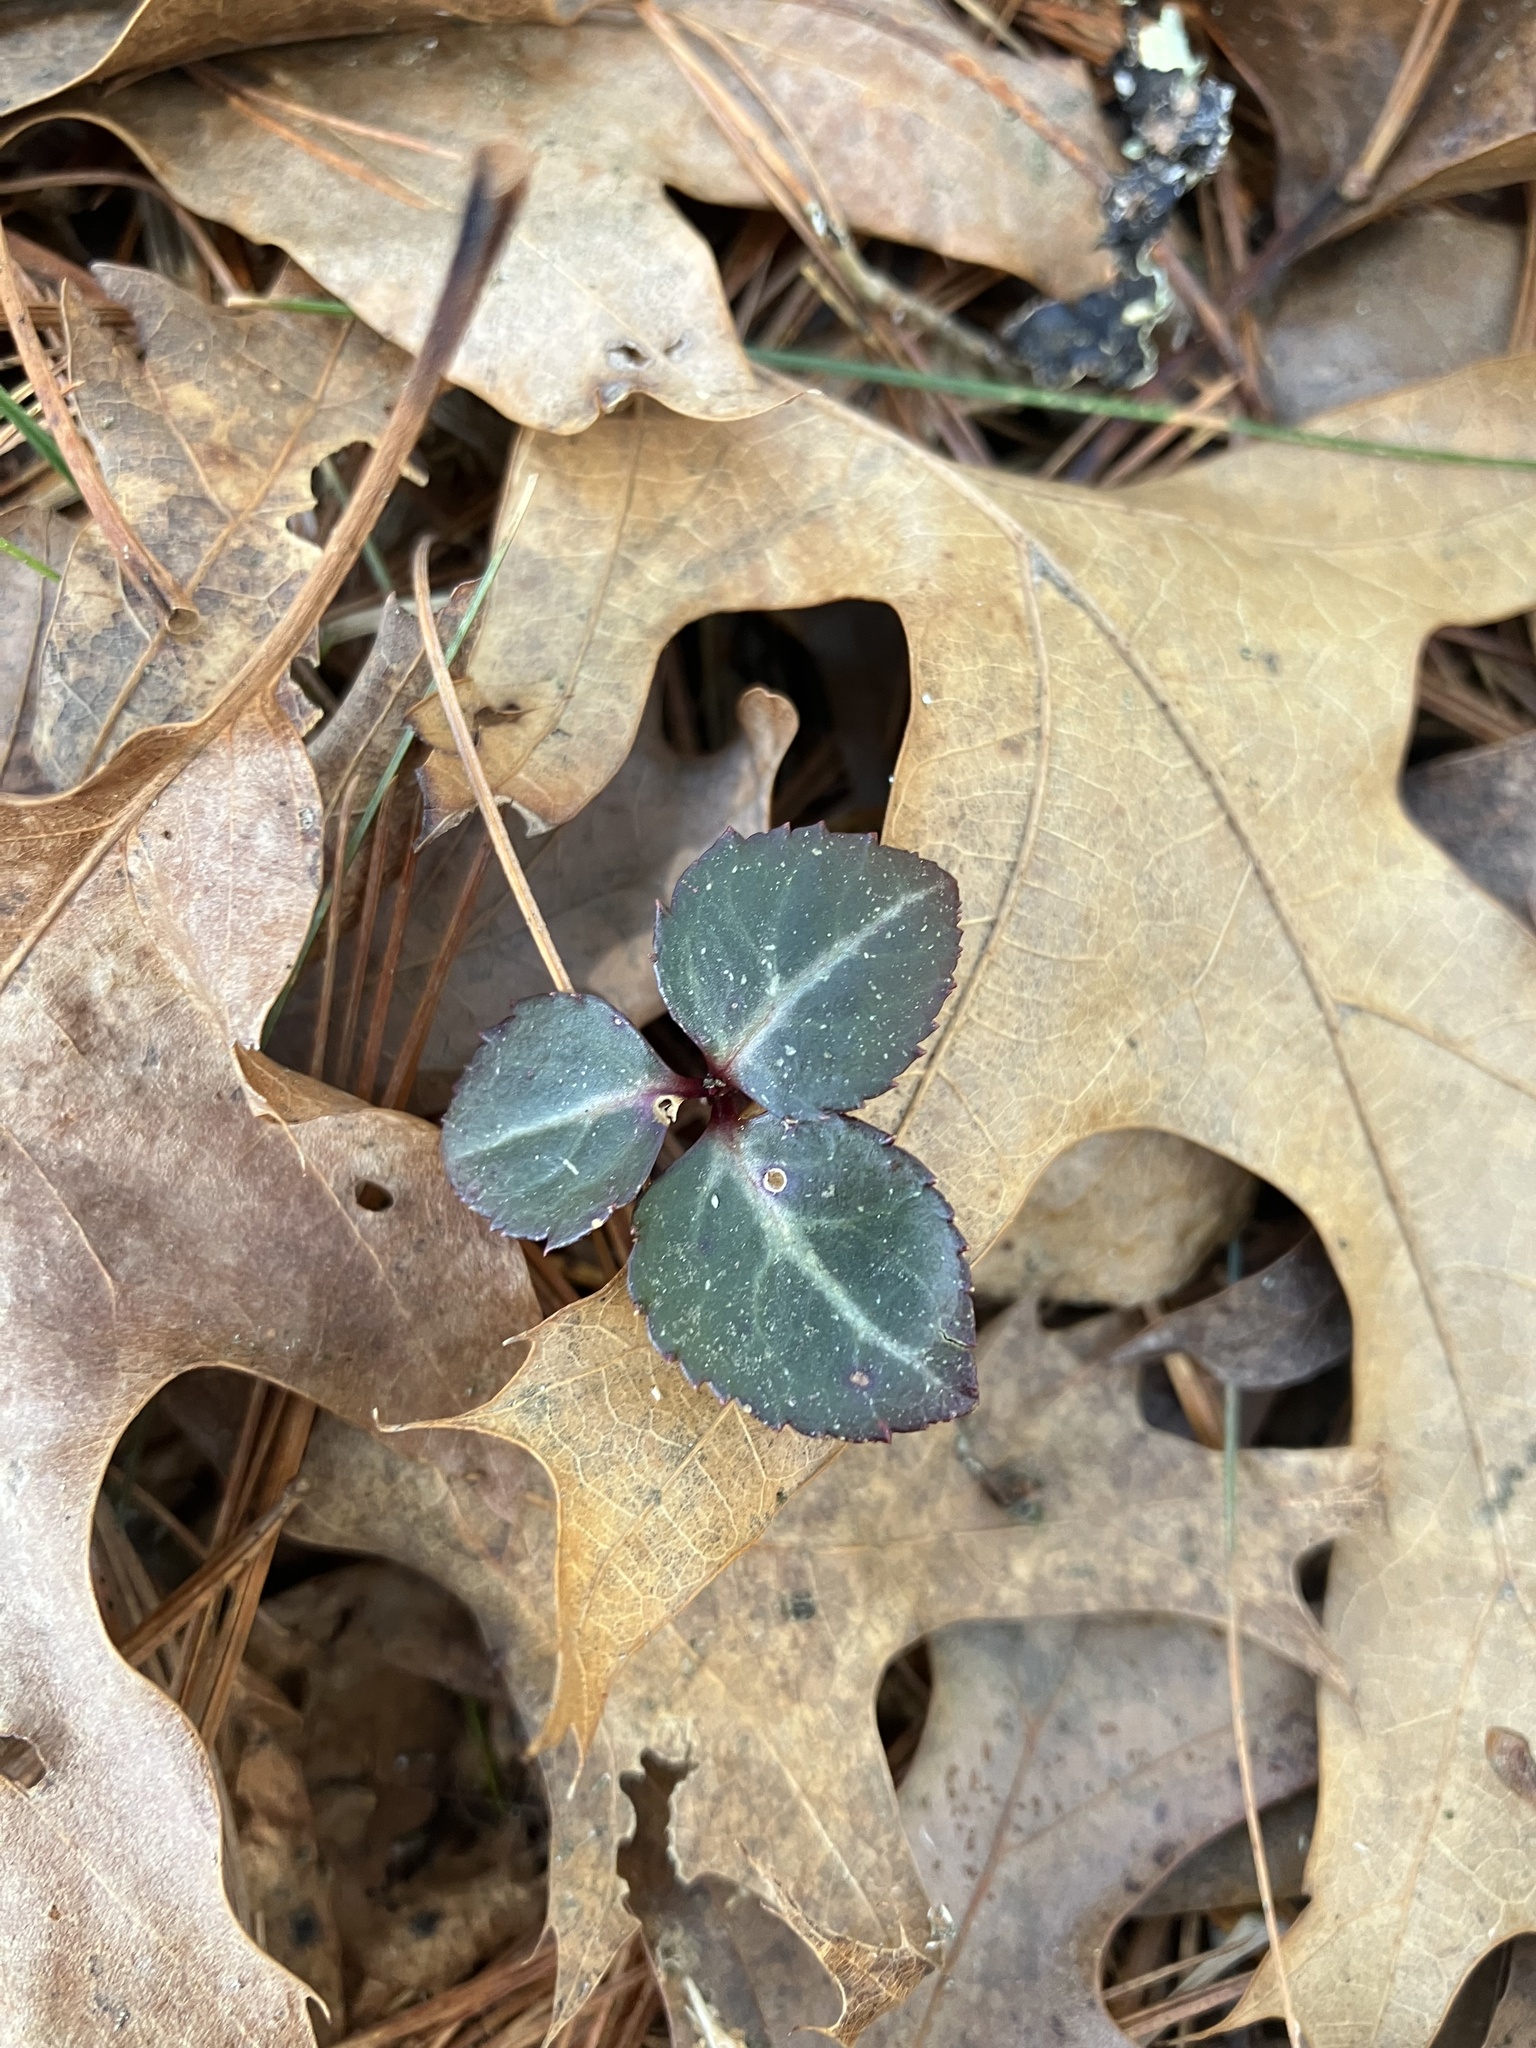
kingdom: Plantae
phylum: Tracheophyta
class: Magnoliopsida
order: Ericales
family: Ericaceae
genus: Chimaphila
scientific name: Chimaphila maculata
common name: Spotted pipsissewa
